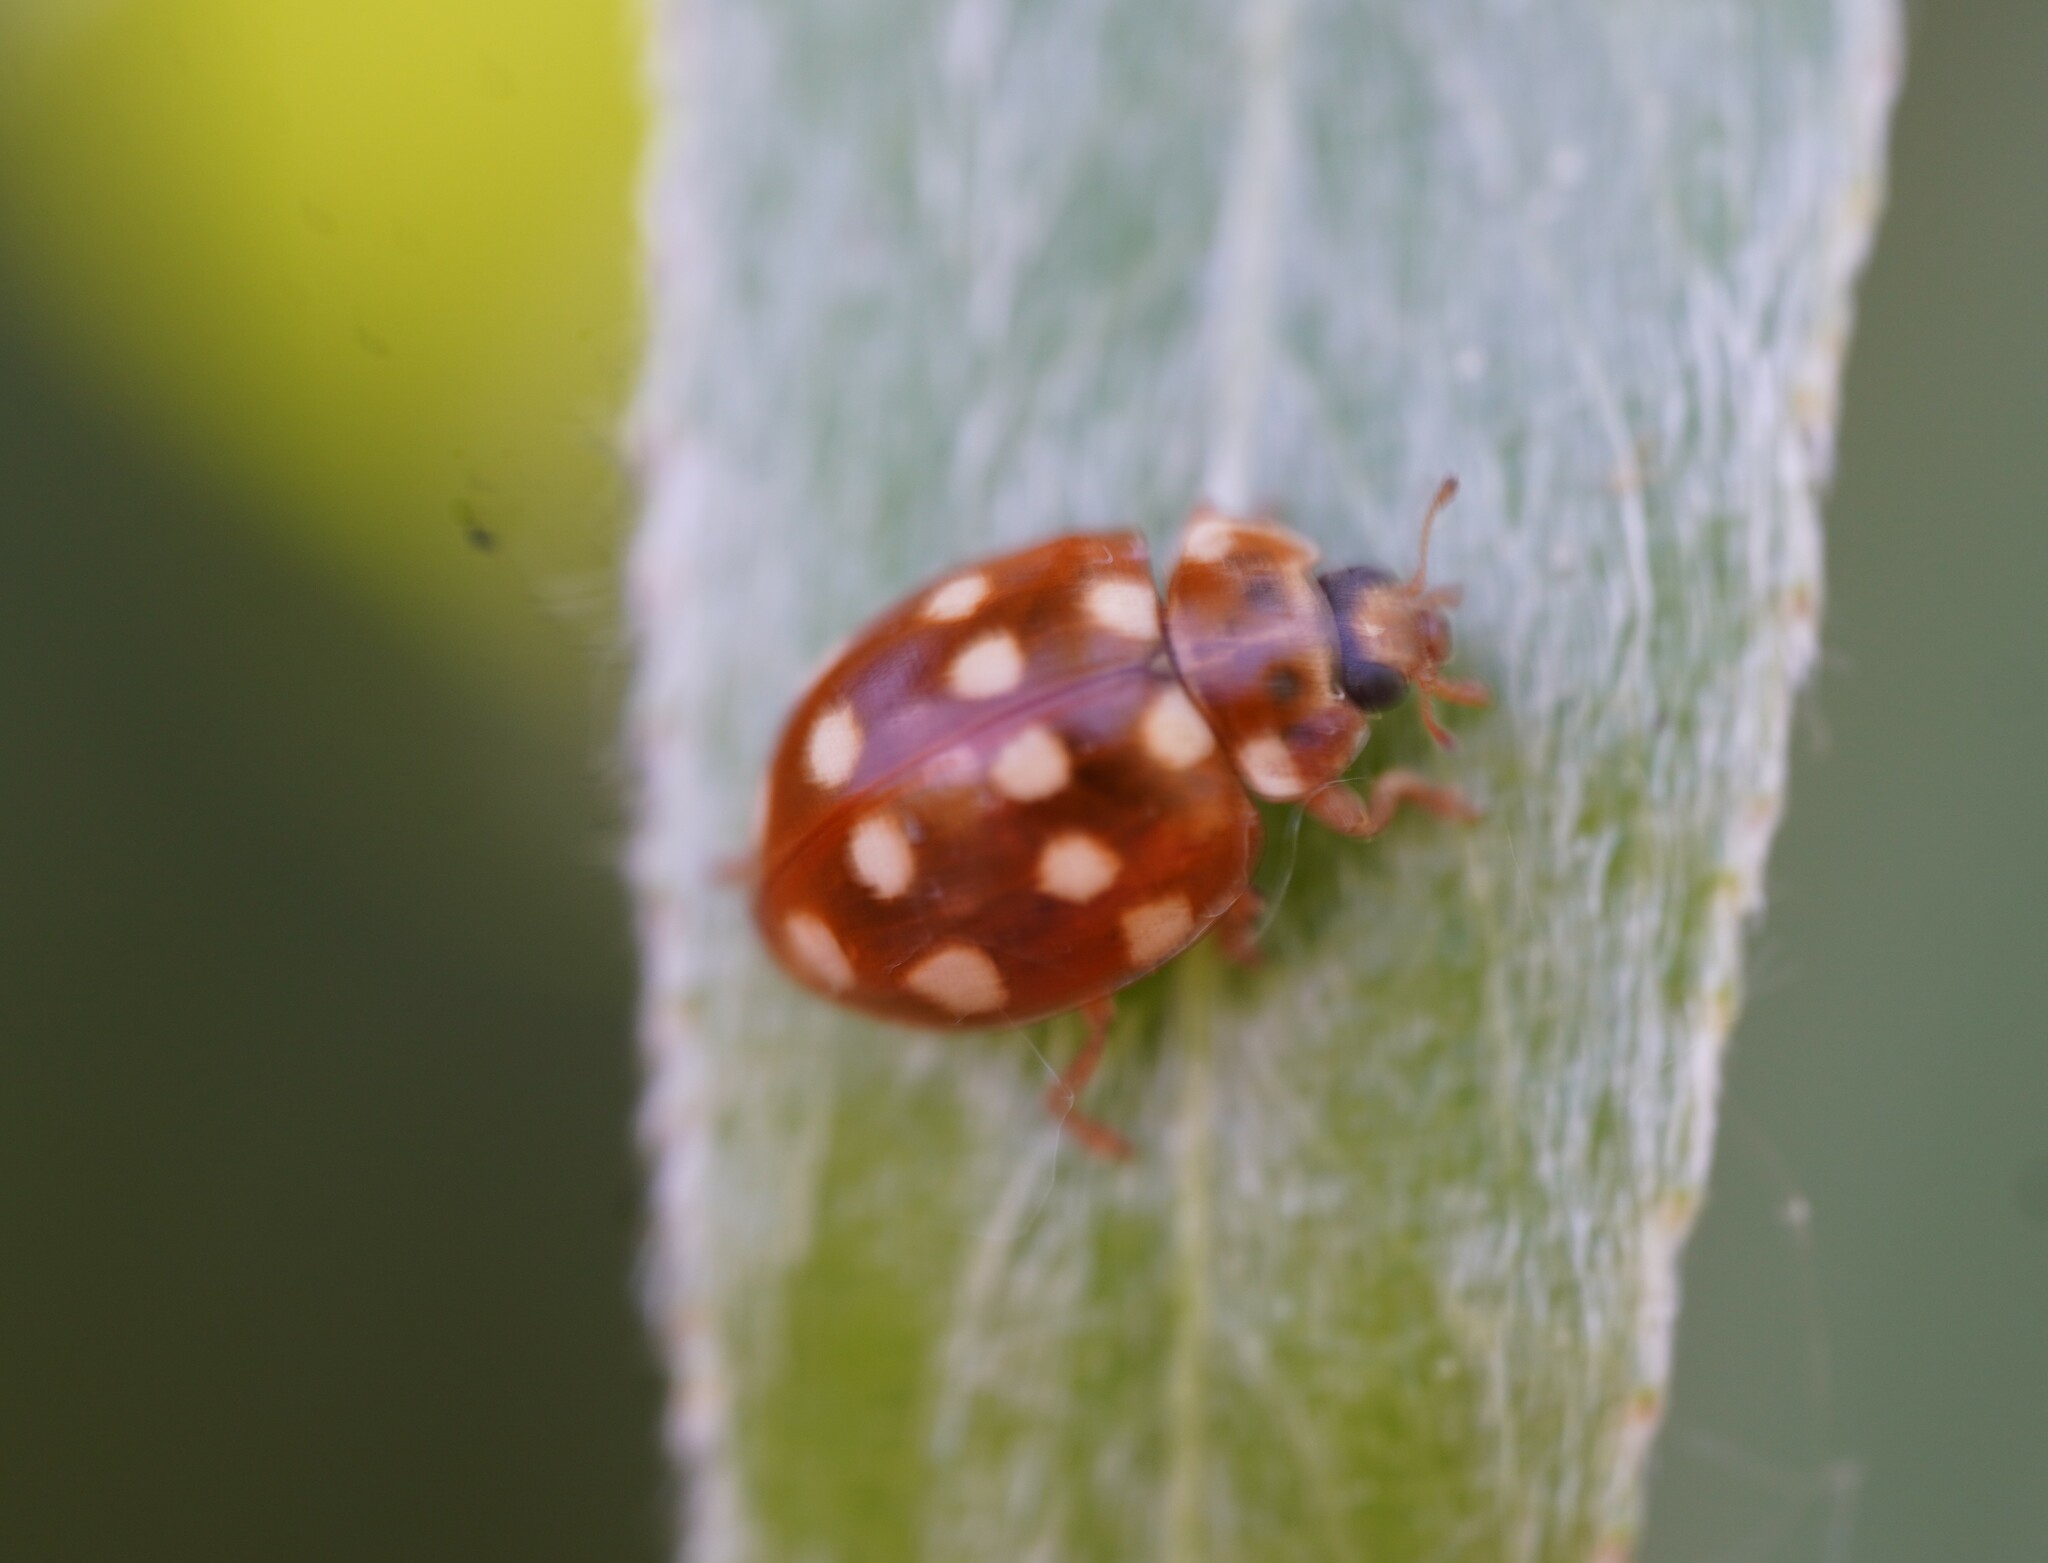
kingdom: Animalia
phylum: Arthropoda
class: Insecta
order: Coleoptera
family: Coccinellidae
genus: Calvia
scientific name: Calvia quatuordecimguttata
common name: Cream-spot ladybird
